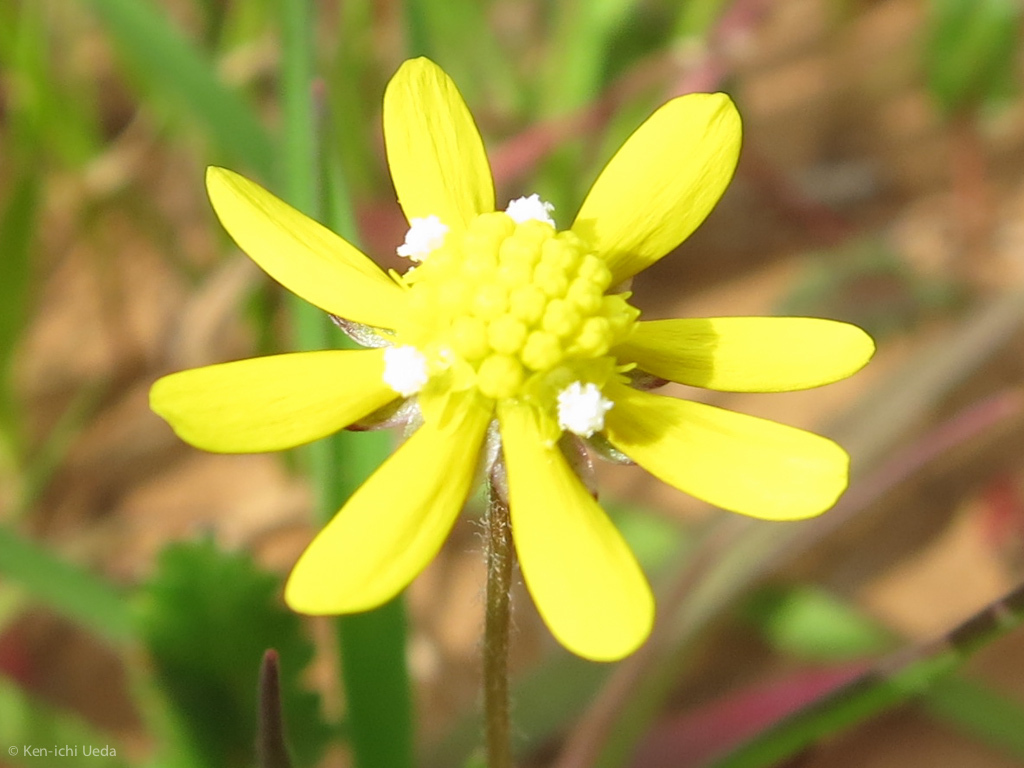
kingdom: Plantae
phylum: Tracheophyta
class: Magnoliopsida
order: Asterales
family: Asteraceae
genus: Blennosperma
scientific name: Blennosperma nanum
